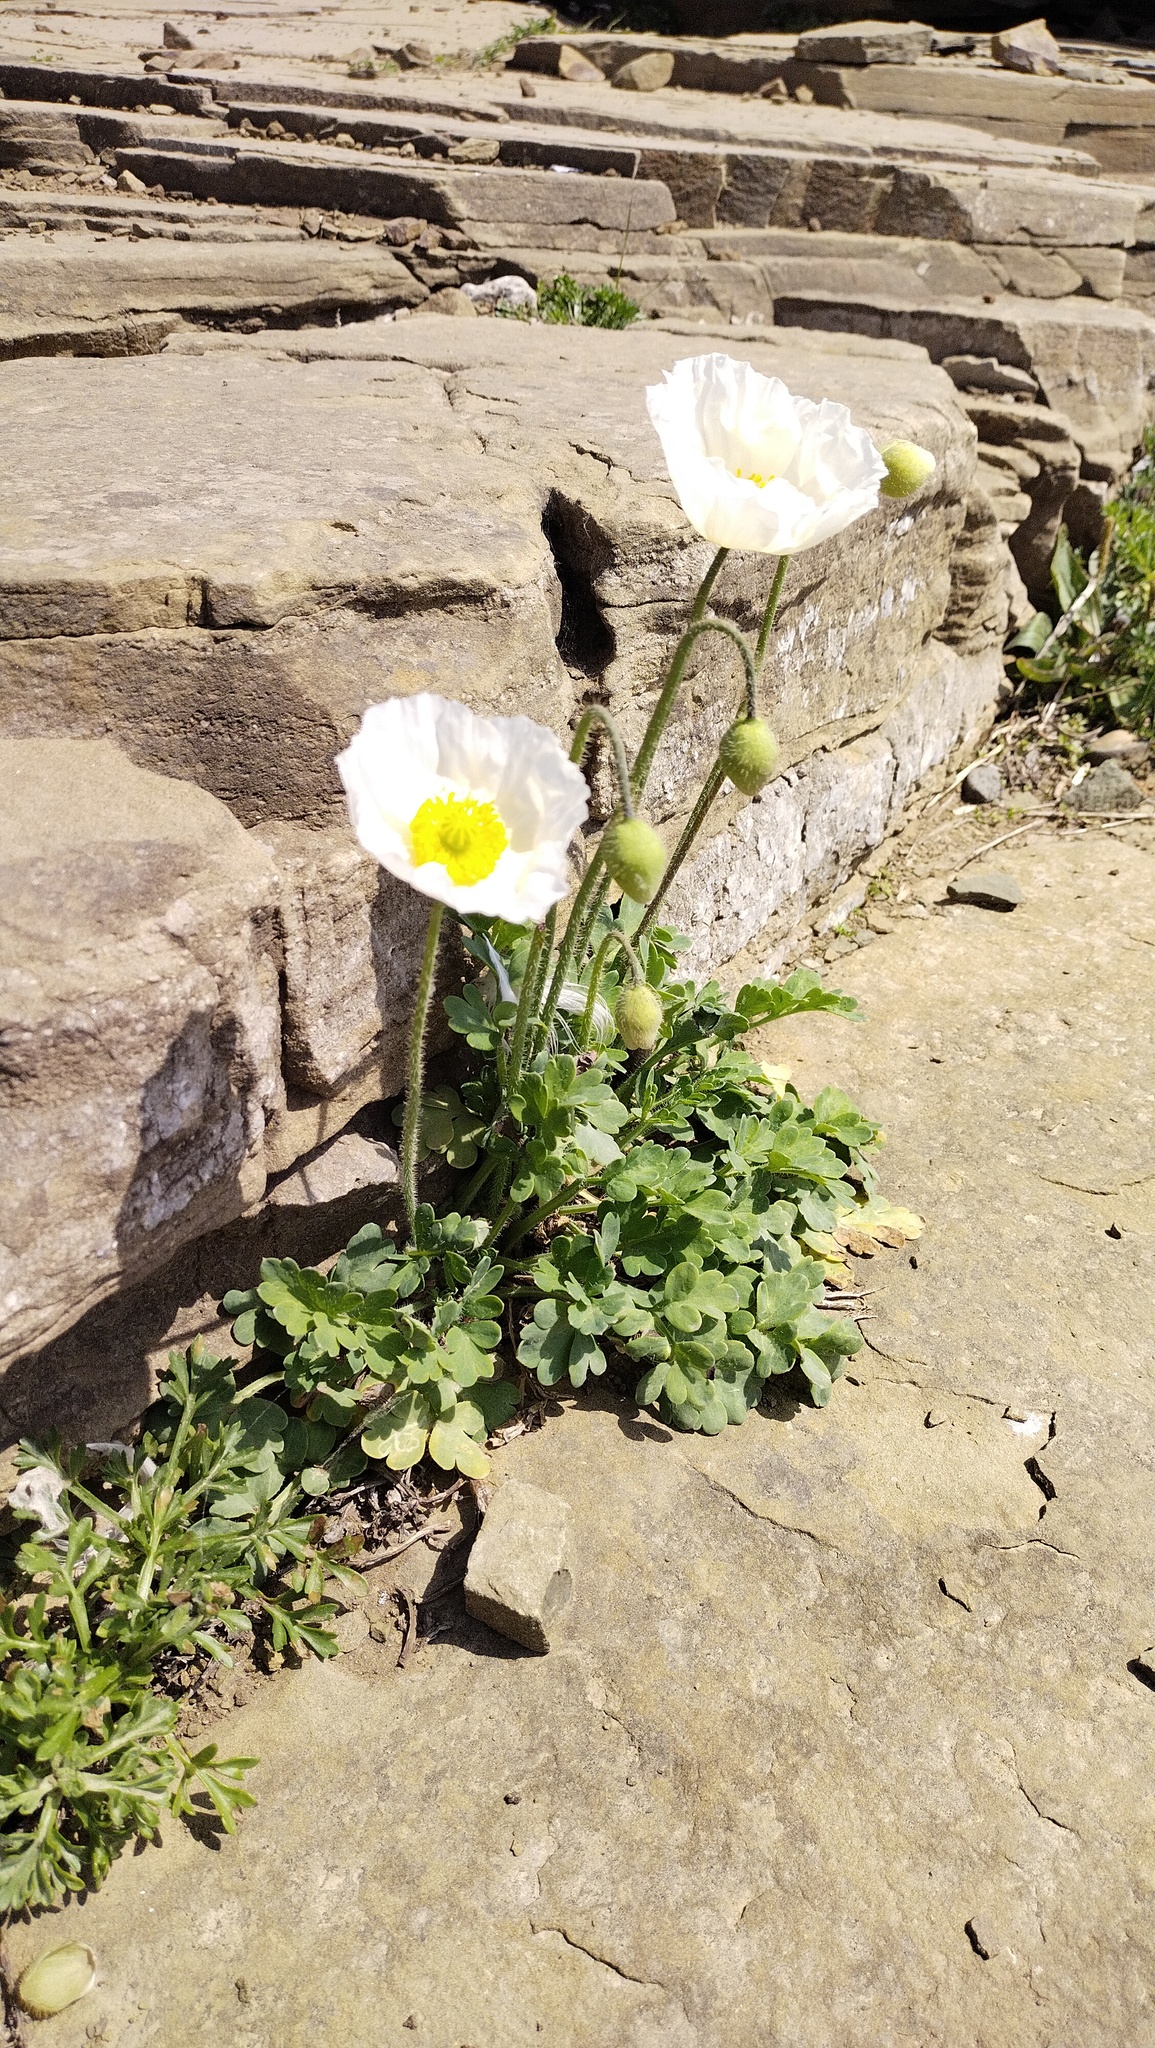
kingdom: Plantae
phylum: Tracheophyta
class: Magnoliopsida
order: Ranunculales
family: Papaveraceae
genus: Papaver
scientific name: Papaver sokolovskajae
